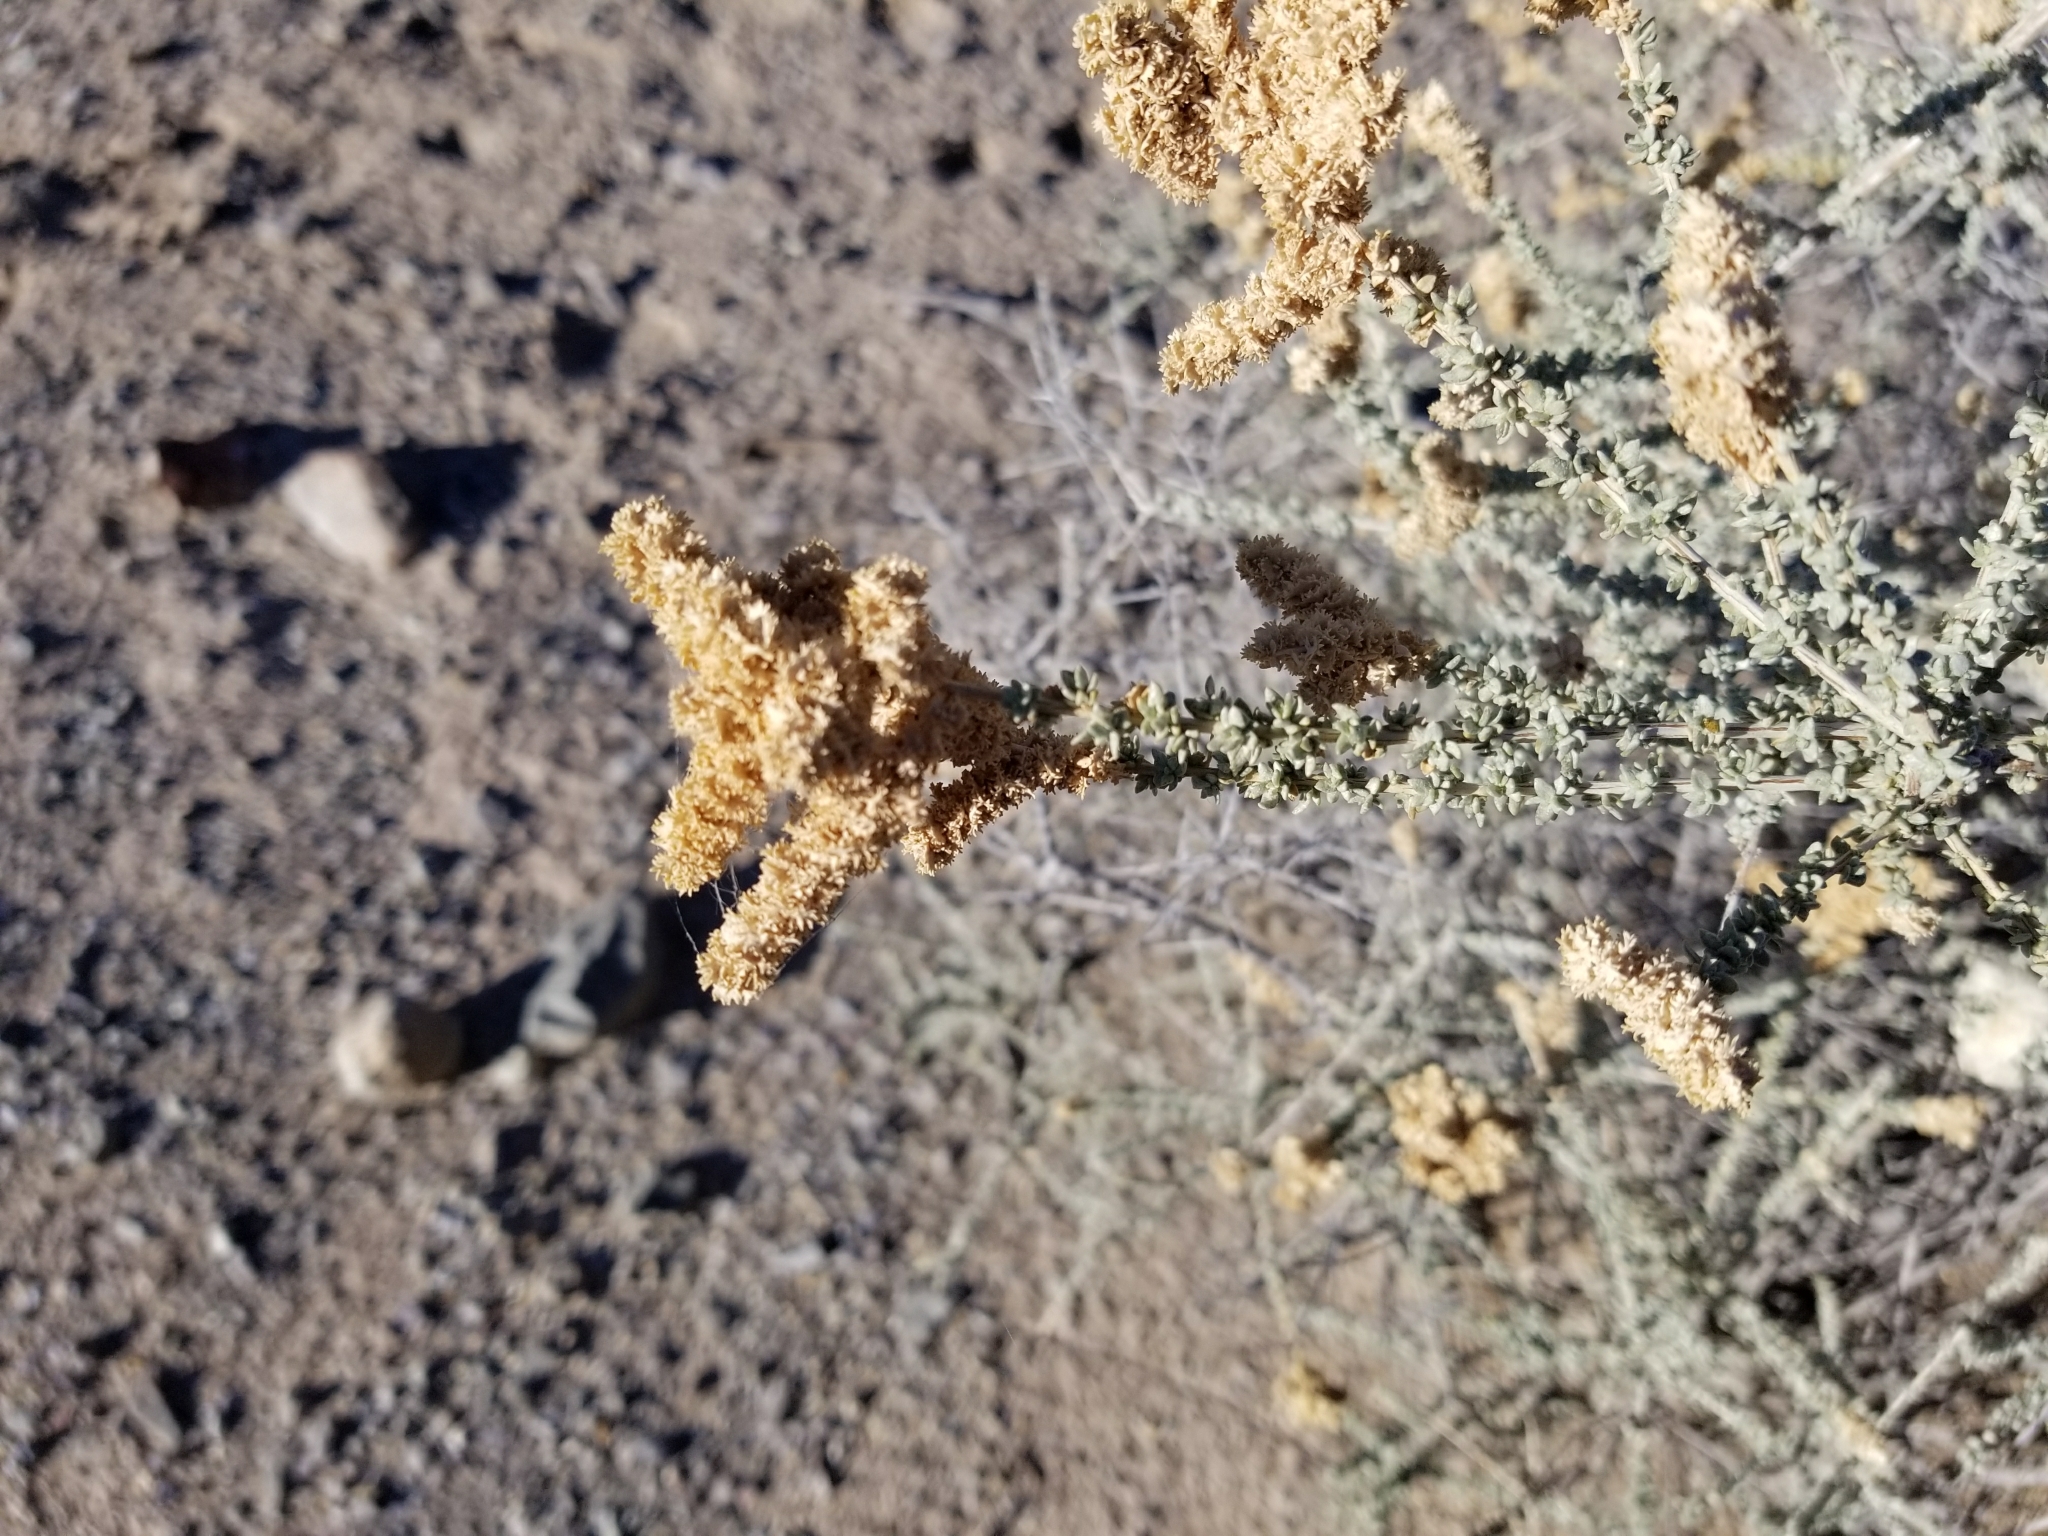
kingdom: Plantae
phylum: Tracheophyta
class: Magnoliopsida
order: Caryophyllales
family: Amaranthaceae
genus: Atriplex
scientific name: Atriplex polycarpa
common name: Desert saltbush
